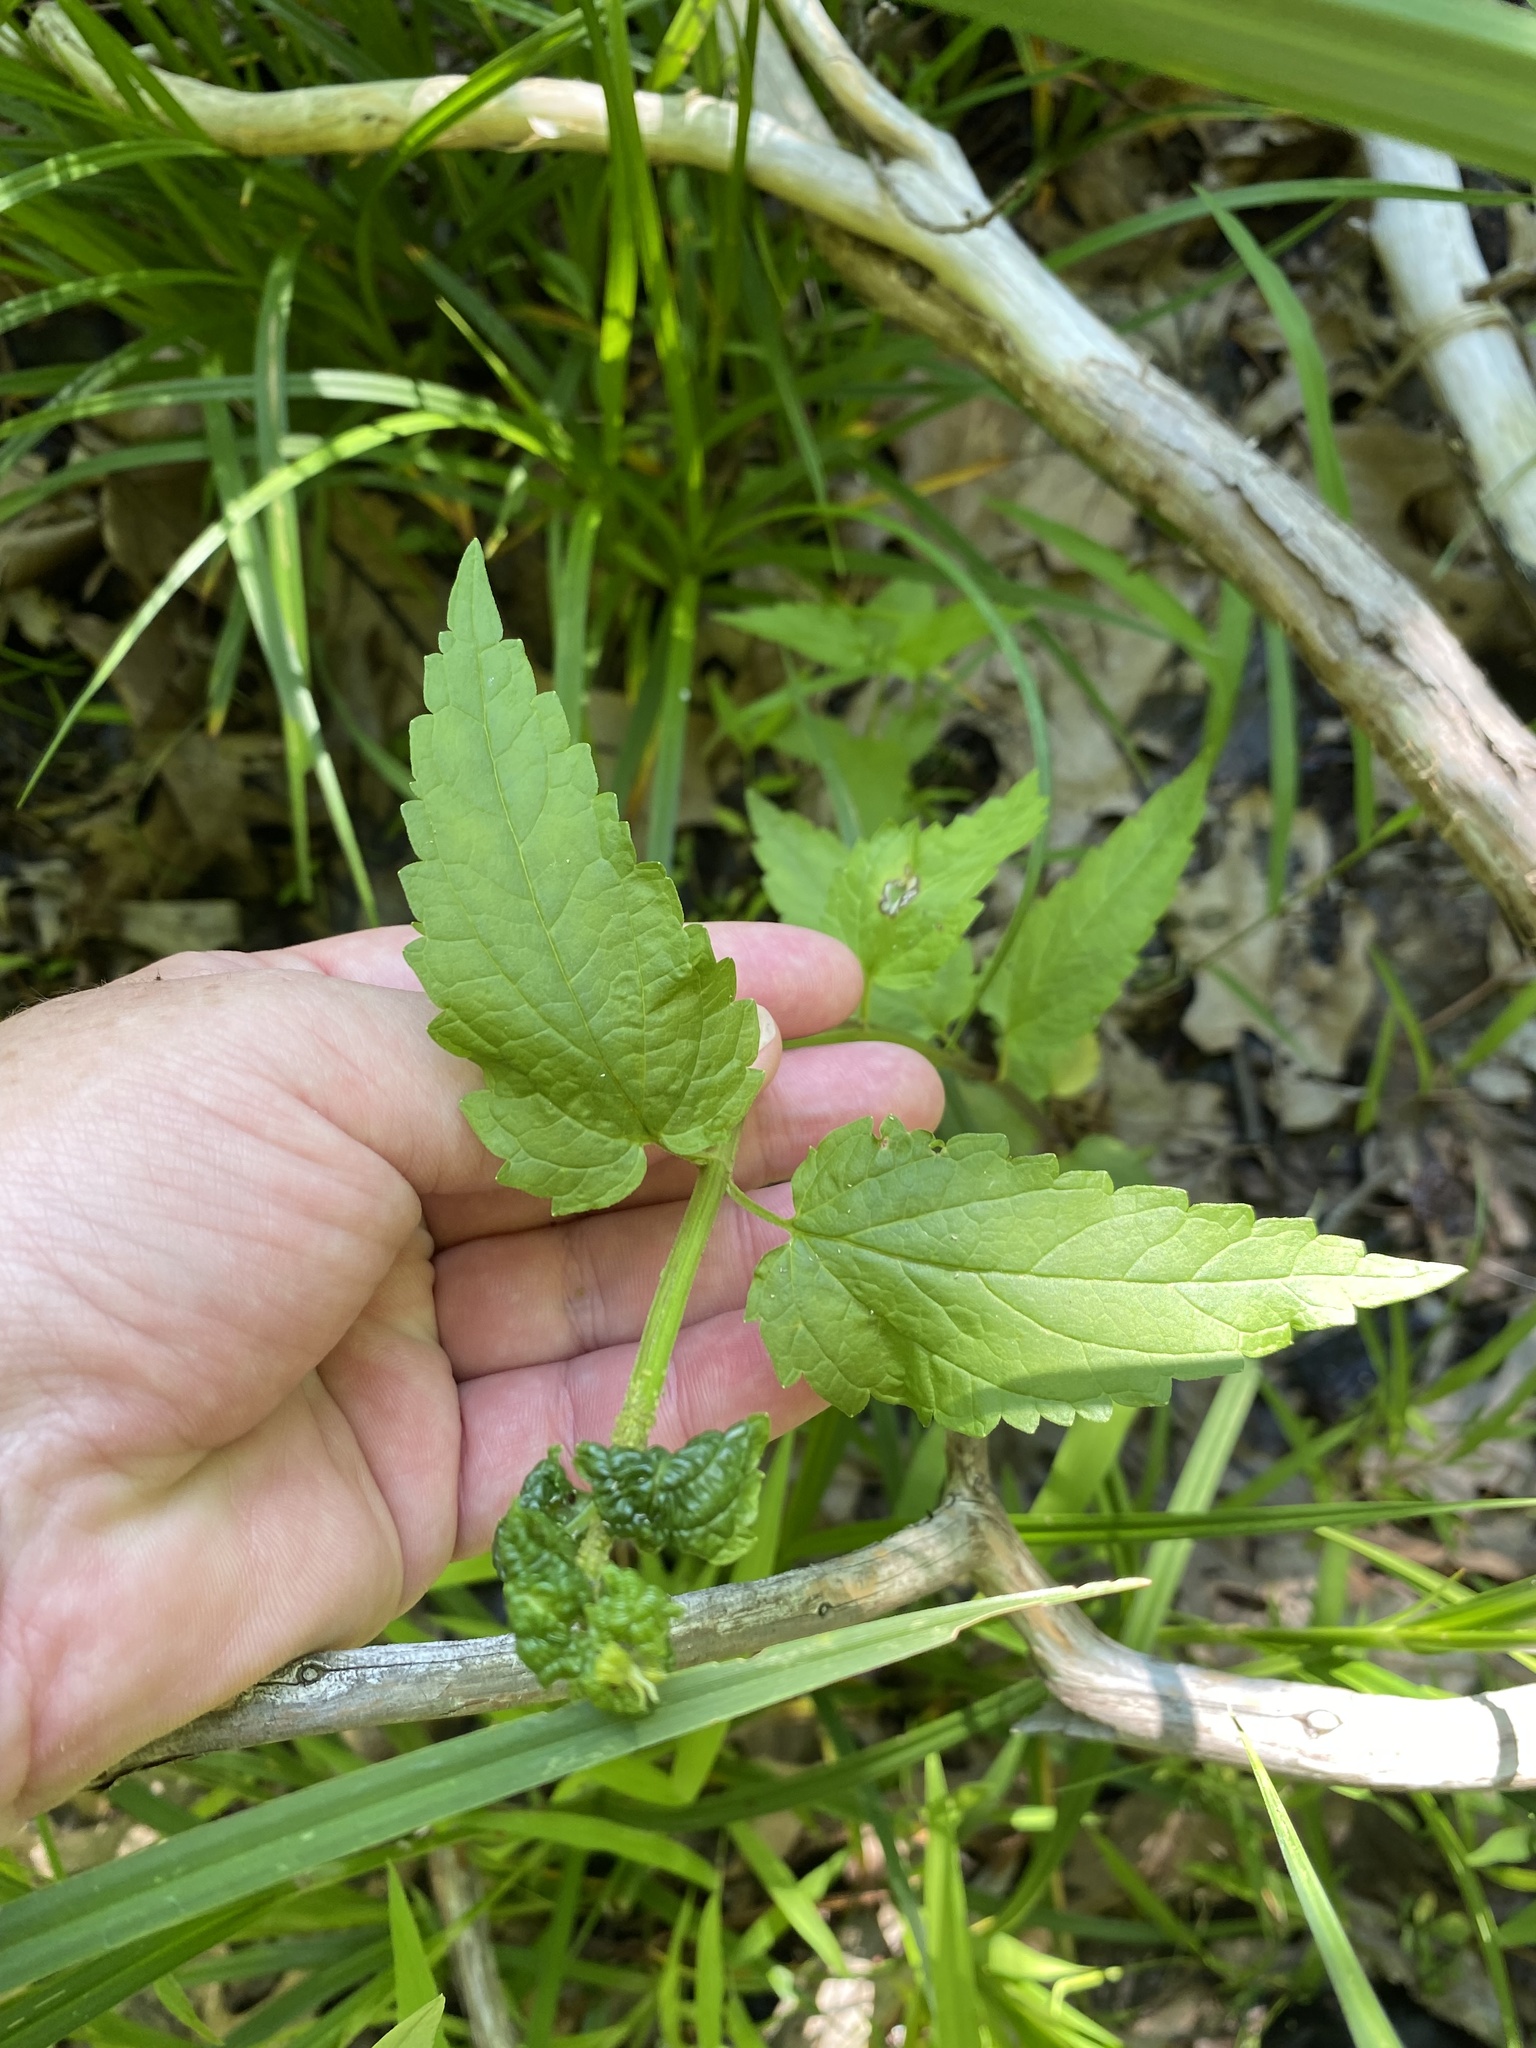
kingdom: Plantae
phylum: Tracheophyta
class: Magnoliopsida
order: Lamiales
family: Lamiaceae
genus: Scutellaria
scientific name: Scutellaria lateriflora
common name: Blue skullcap
